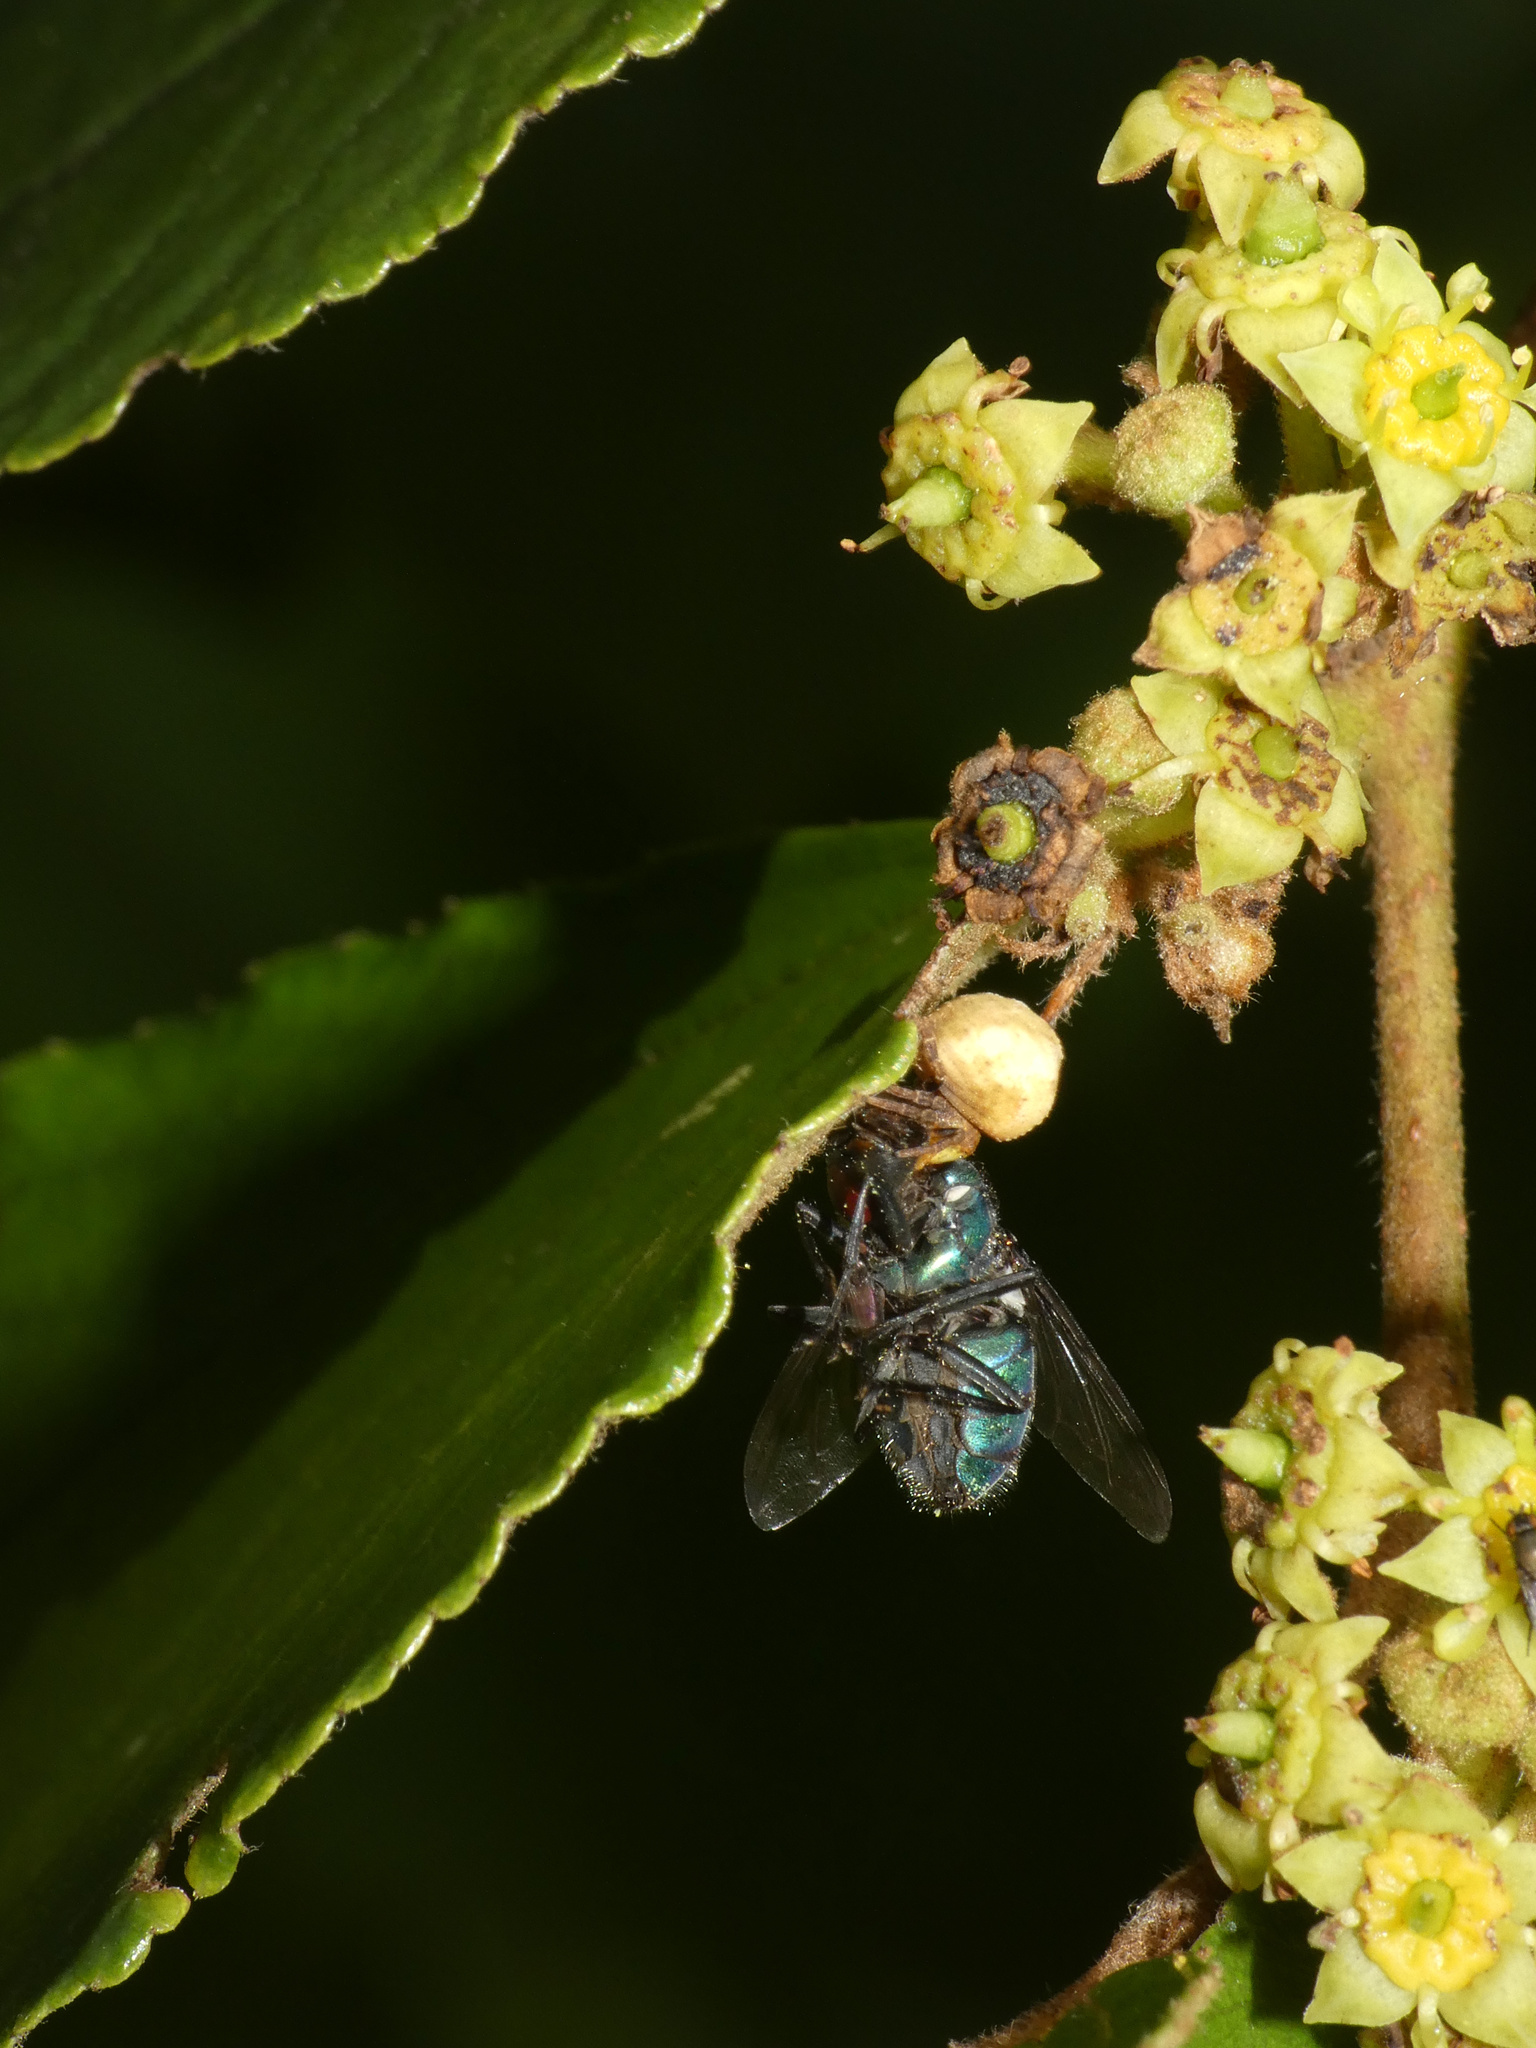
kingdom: Animalia
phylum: Arthropoda
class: Arachnida
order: Araneae
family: Thomisidae
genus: Parabomis
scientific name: Parabomis megae
